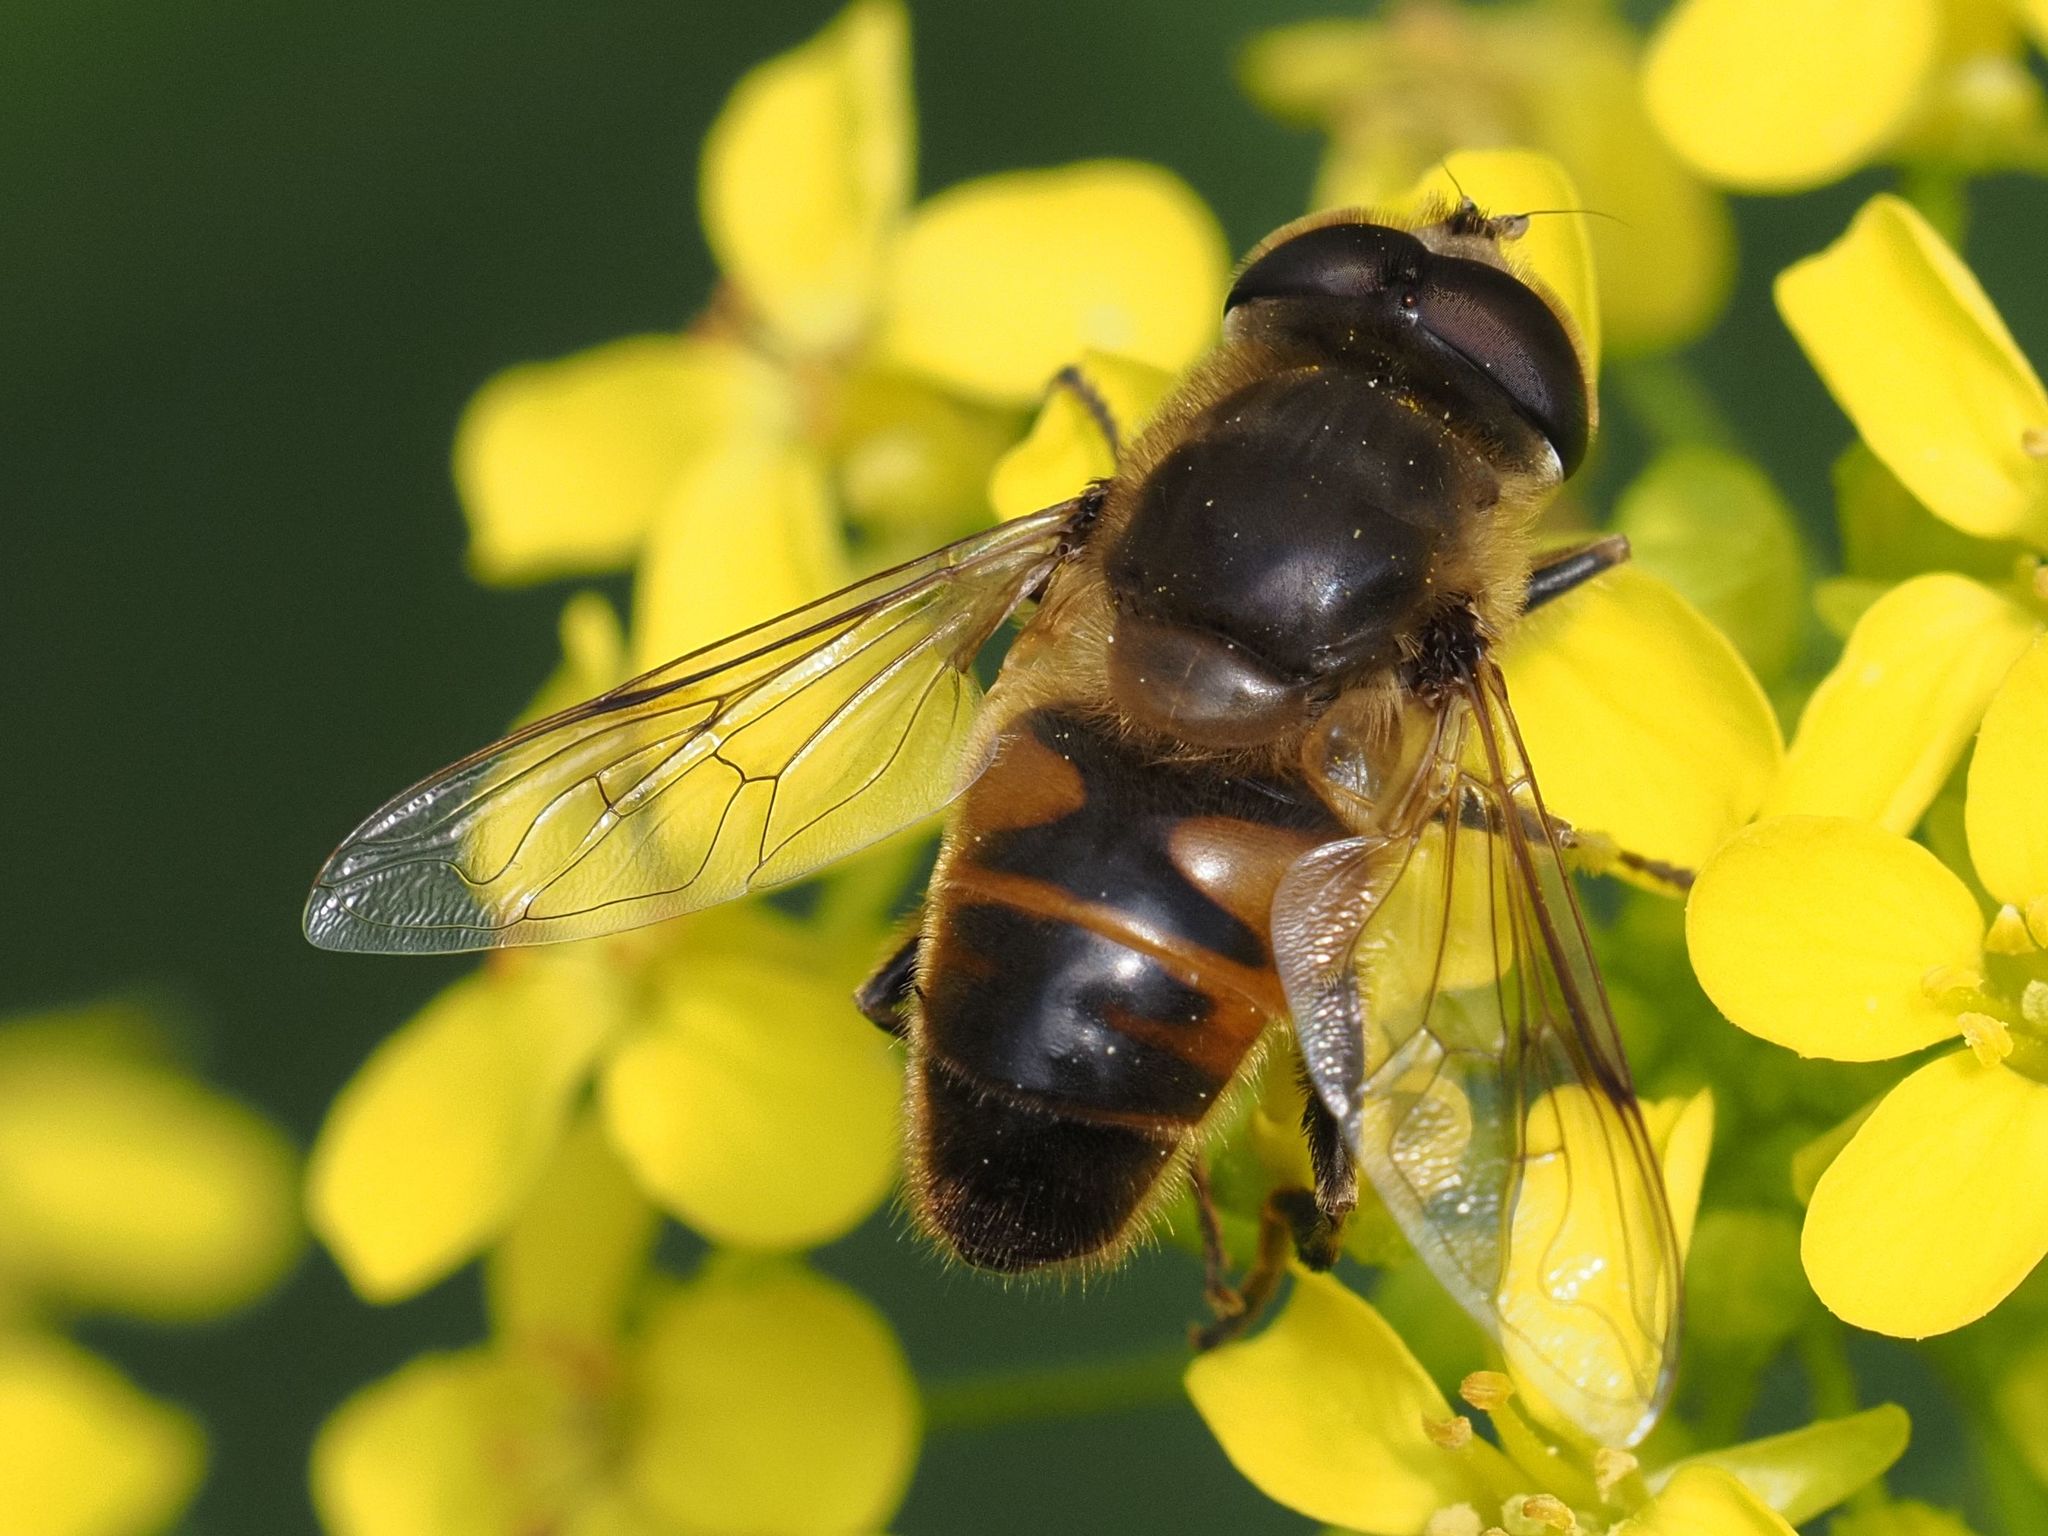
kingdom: Animalia
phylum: Arthropoda
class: Insecta
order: Diptera
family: Syrphidae
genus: Eristalis
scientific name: Eristalis tenax
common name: Drone fly
